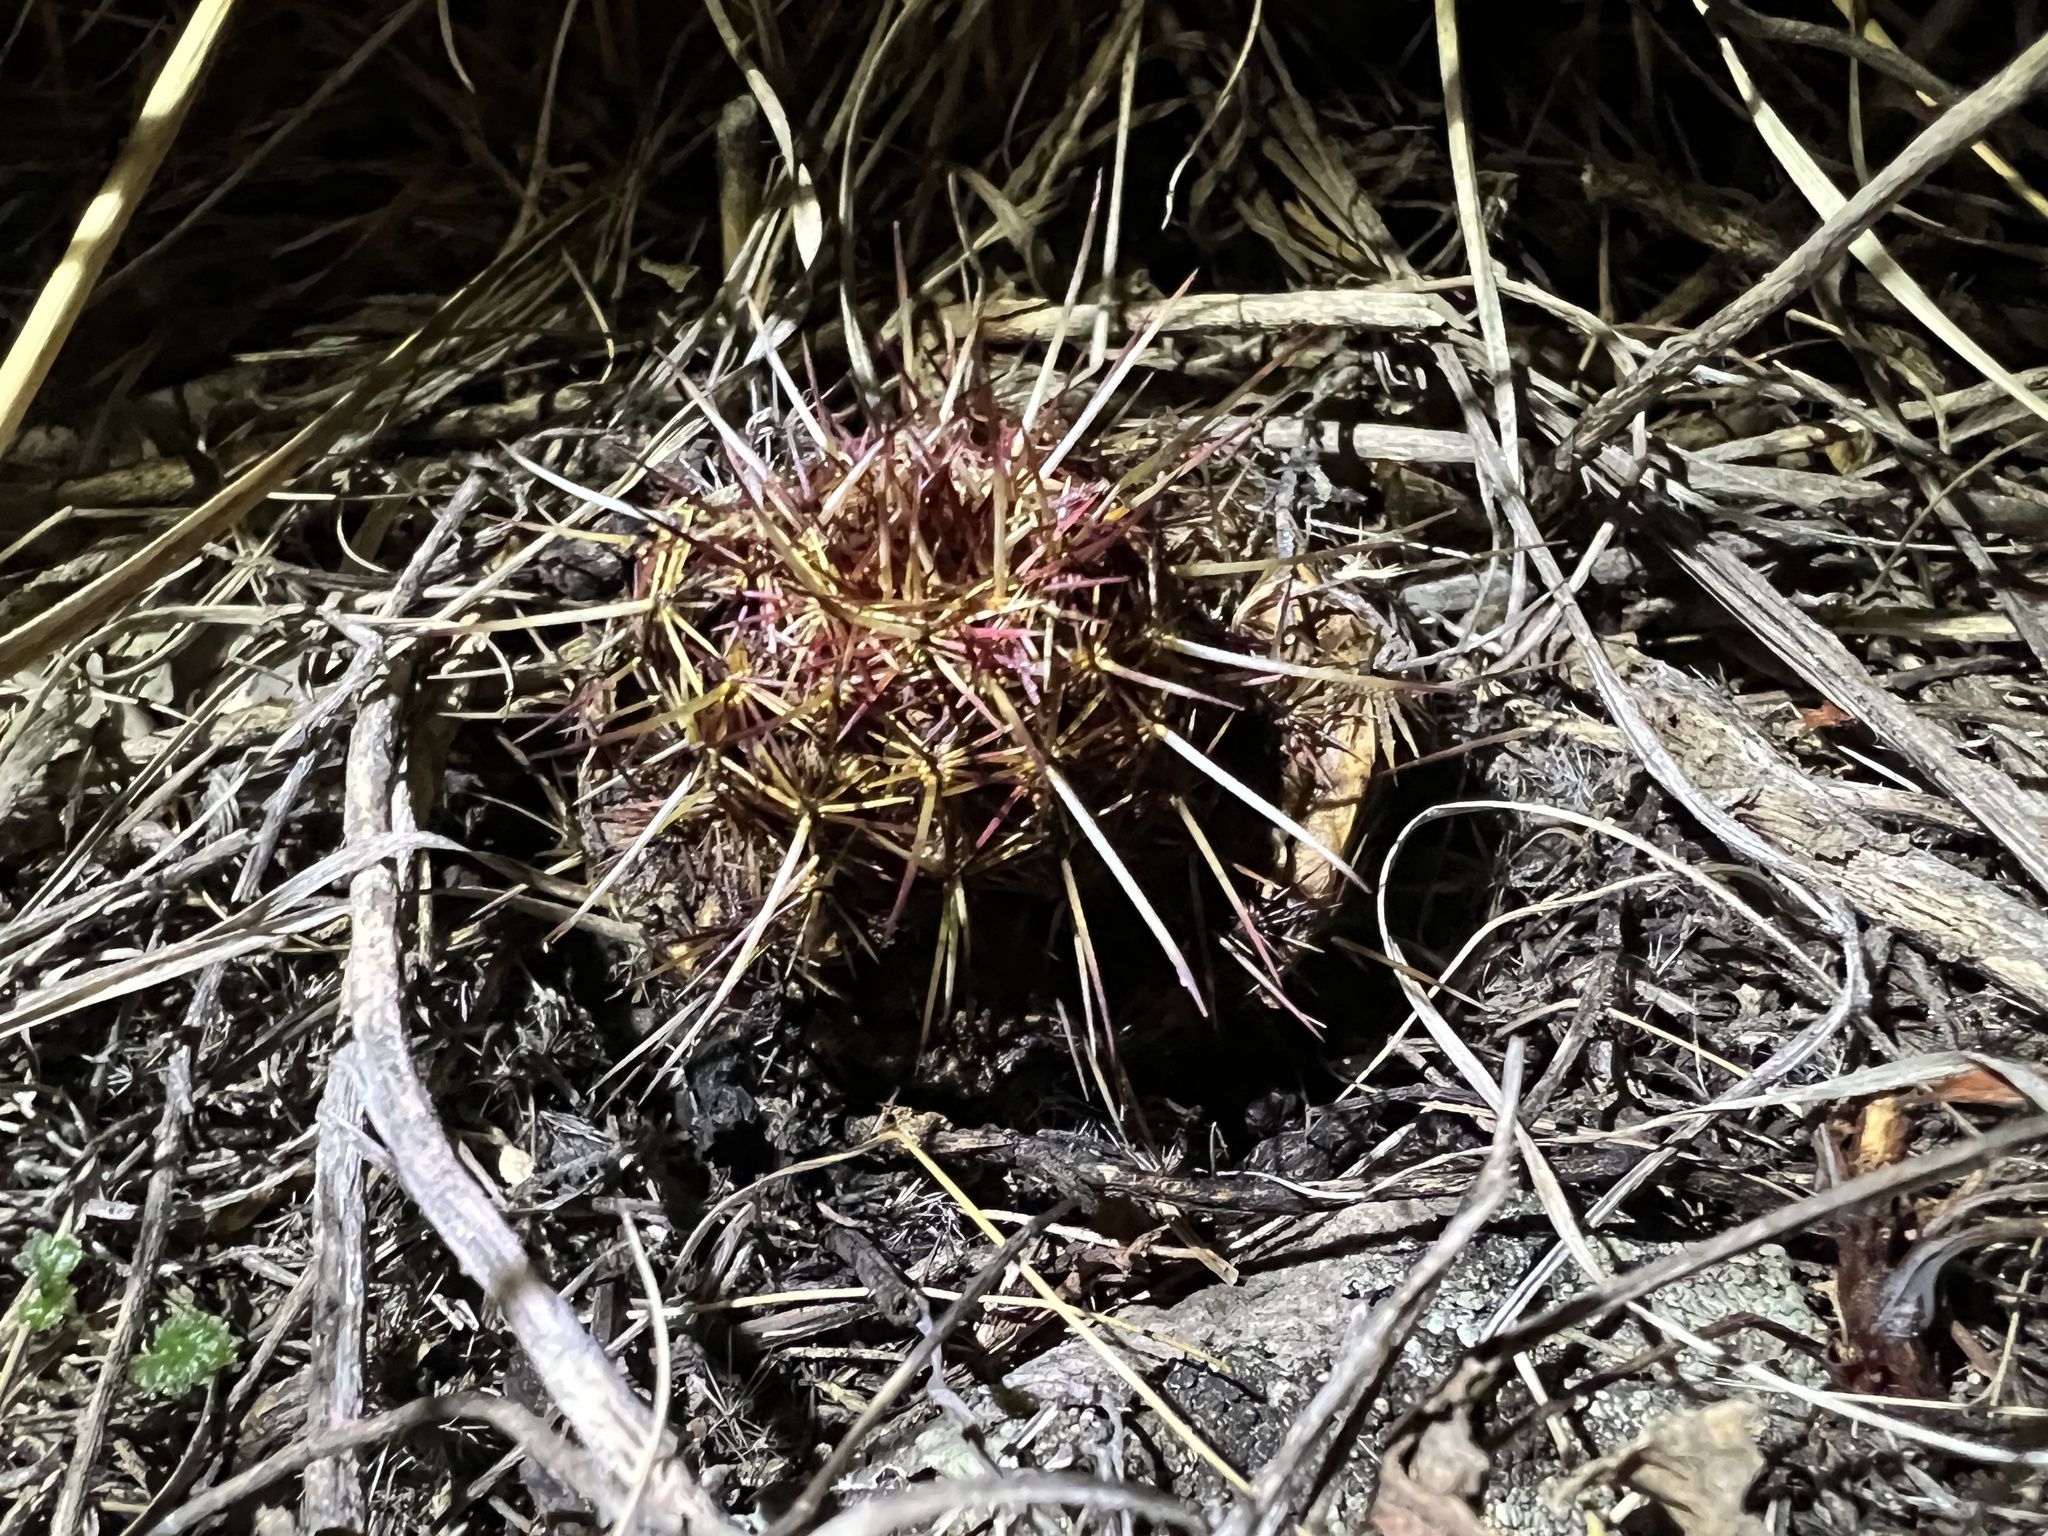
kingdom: Plantae
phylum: Tracheophyta
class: Magnoliopsida
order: Caryophyllales
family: Cactaceae
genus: Echinocereus
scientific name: Echinocereus viridiflorus
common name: Nylon hedgehog cactus
